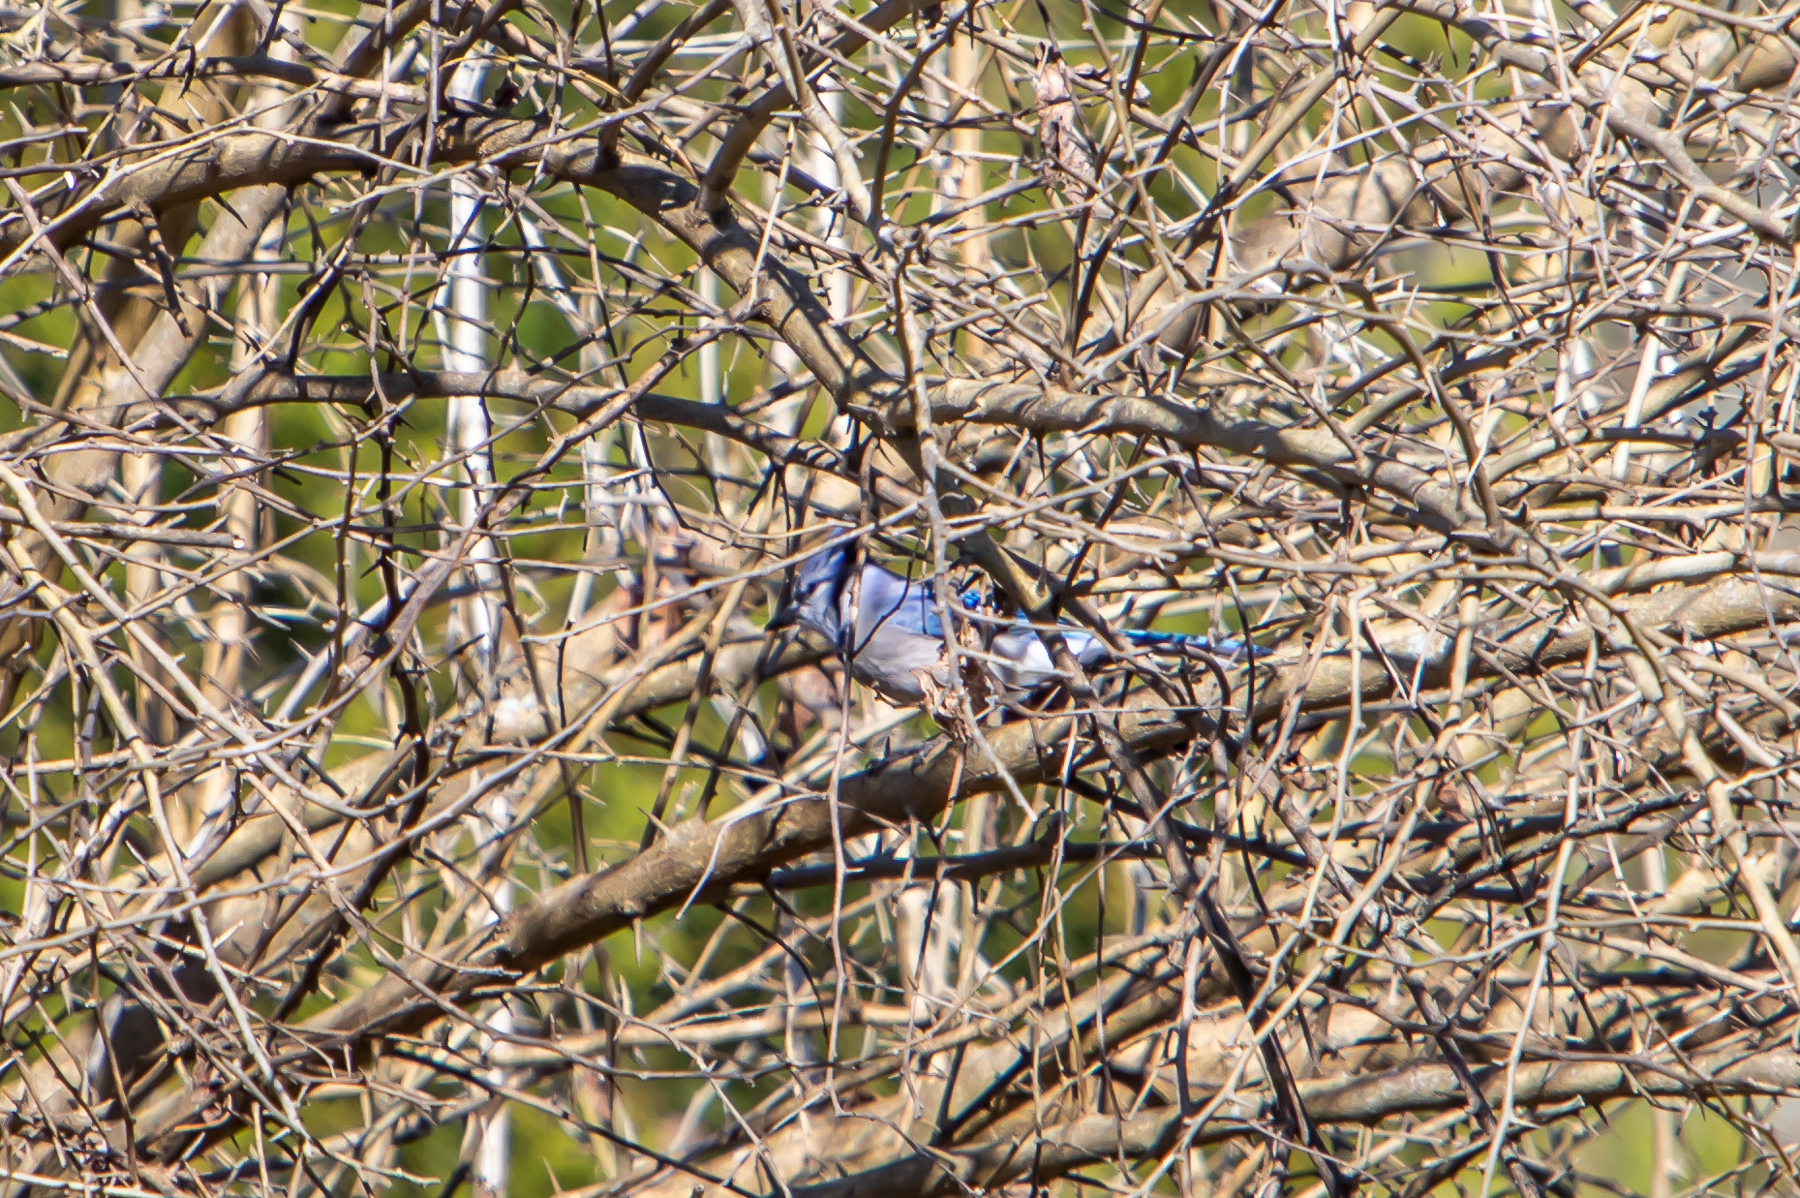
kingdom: Animalia
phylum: Chordata
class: Aves
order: Passeriformes
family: Corvidae
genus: Cyanocitta
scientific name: Cyanocitta cristata
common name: Blue jay
